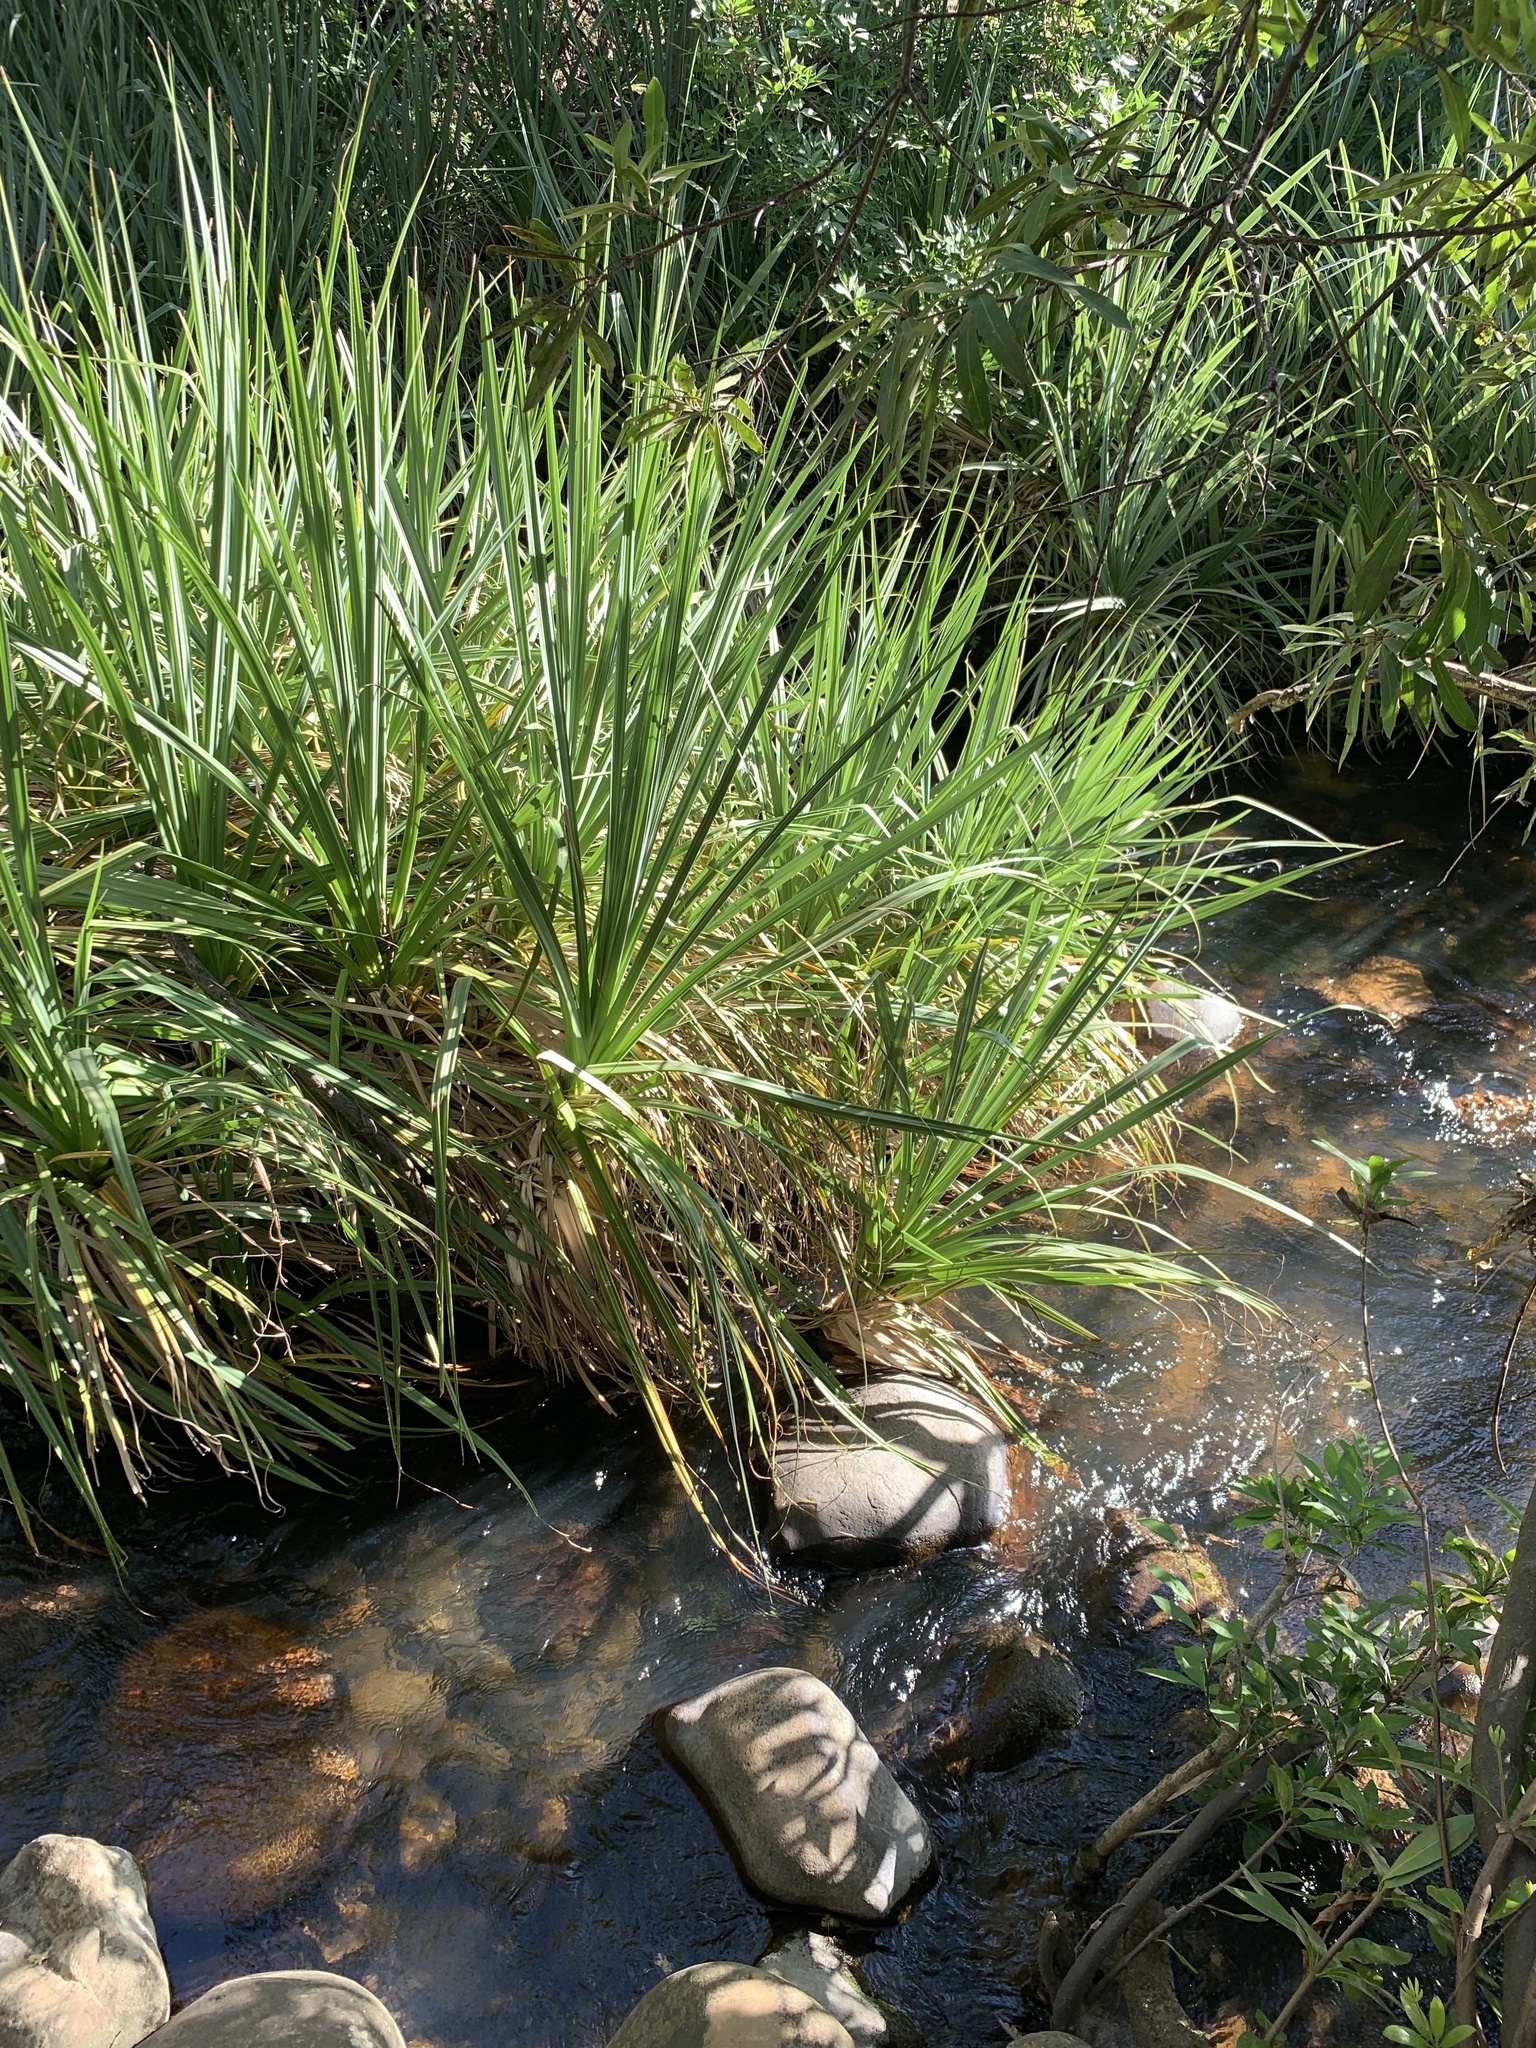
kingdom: Plantae
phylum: Tracheophyta
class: Liliopsida
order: Poales
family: Thurniaceae
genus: Prionium
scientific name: Prionium serratum
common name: Palmiet
